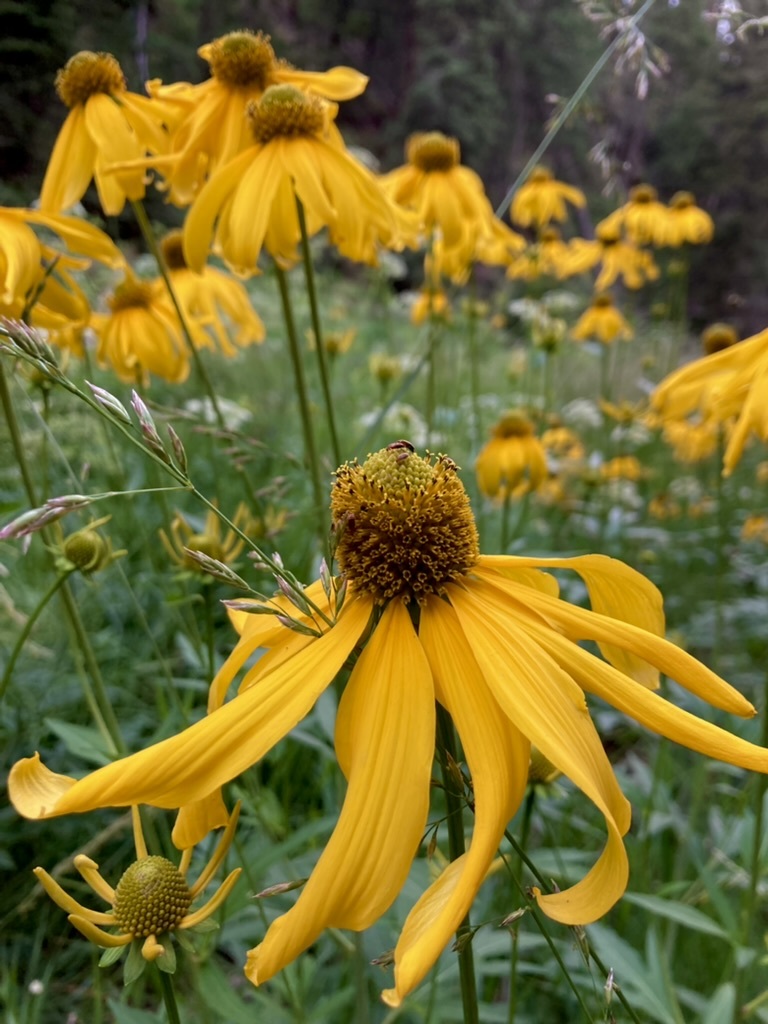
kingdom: Plantae
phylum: Tracheophyta
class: Magnoliopsida
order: Asterales
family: Asteraceae
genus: Rudbeckia
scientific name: Rudbeckia laciniata
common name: Coneflower
